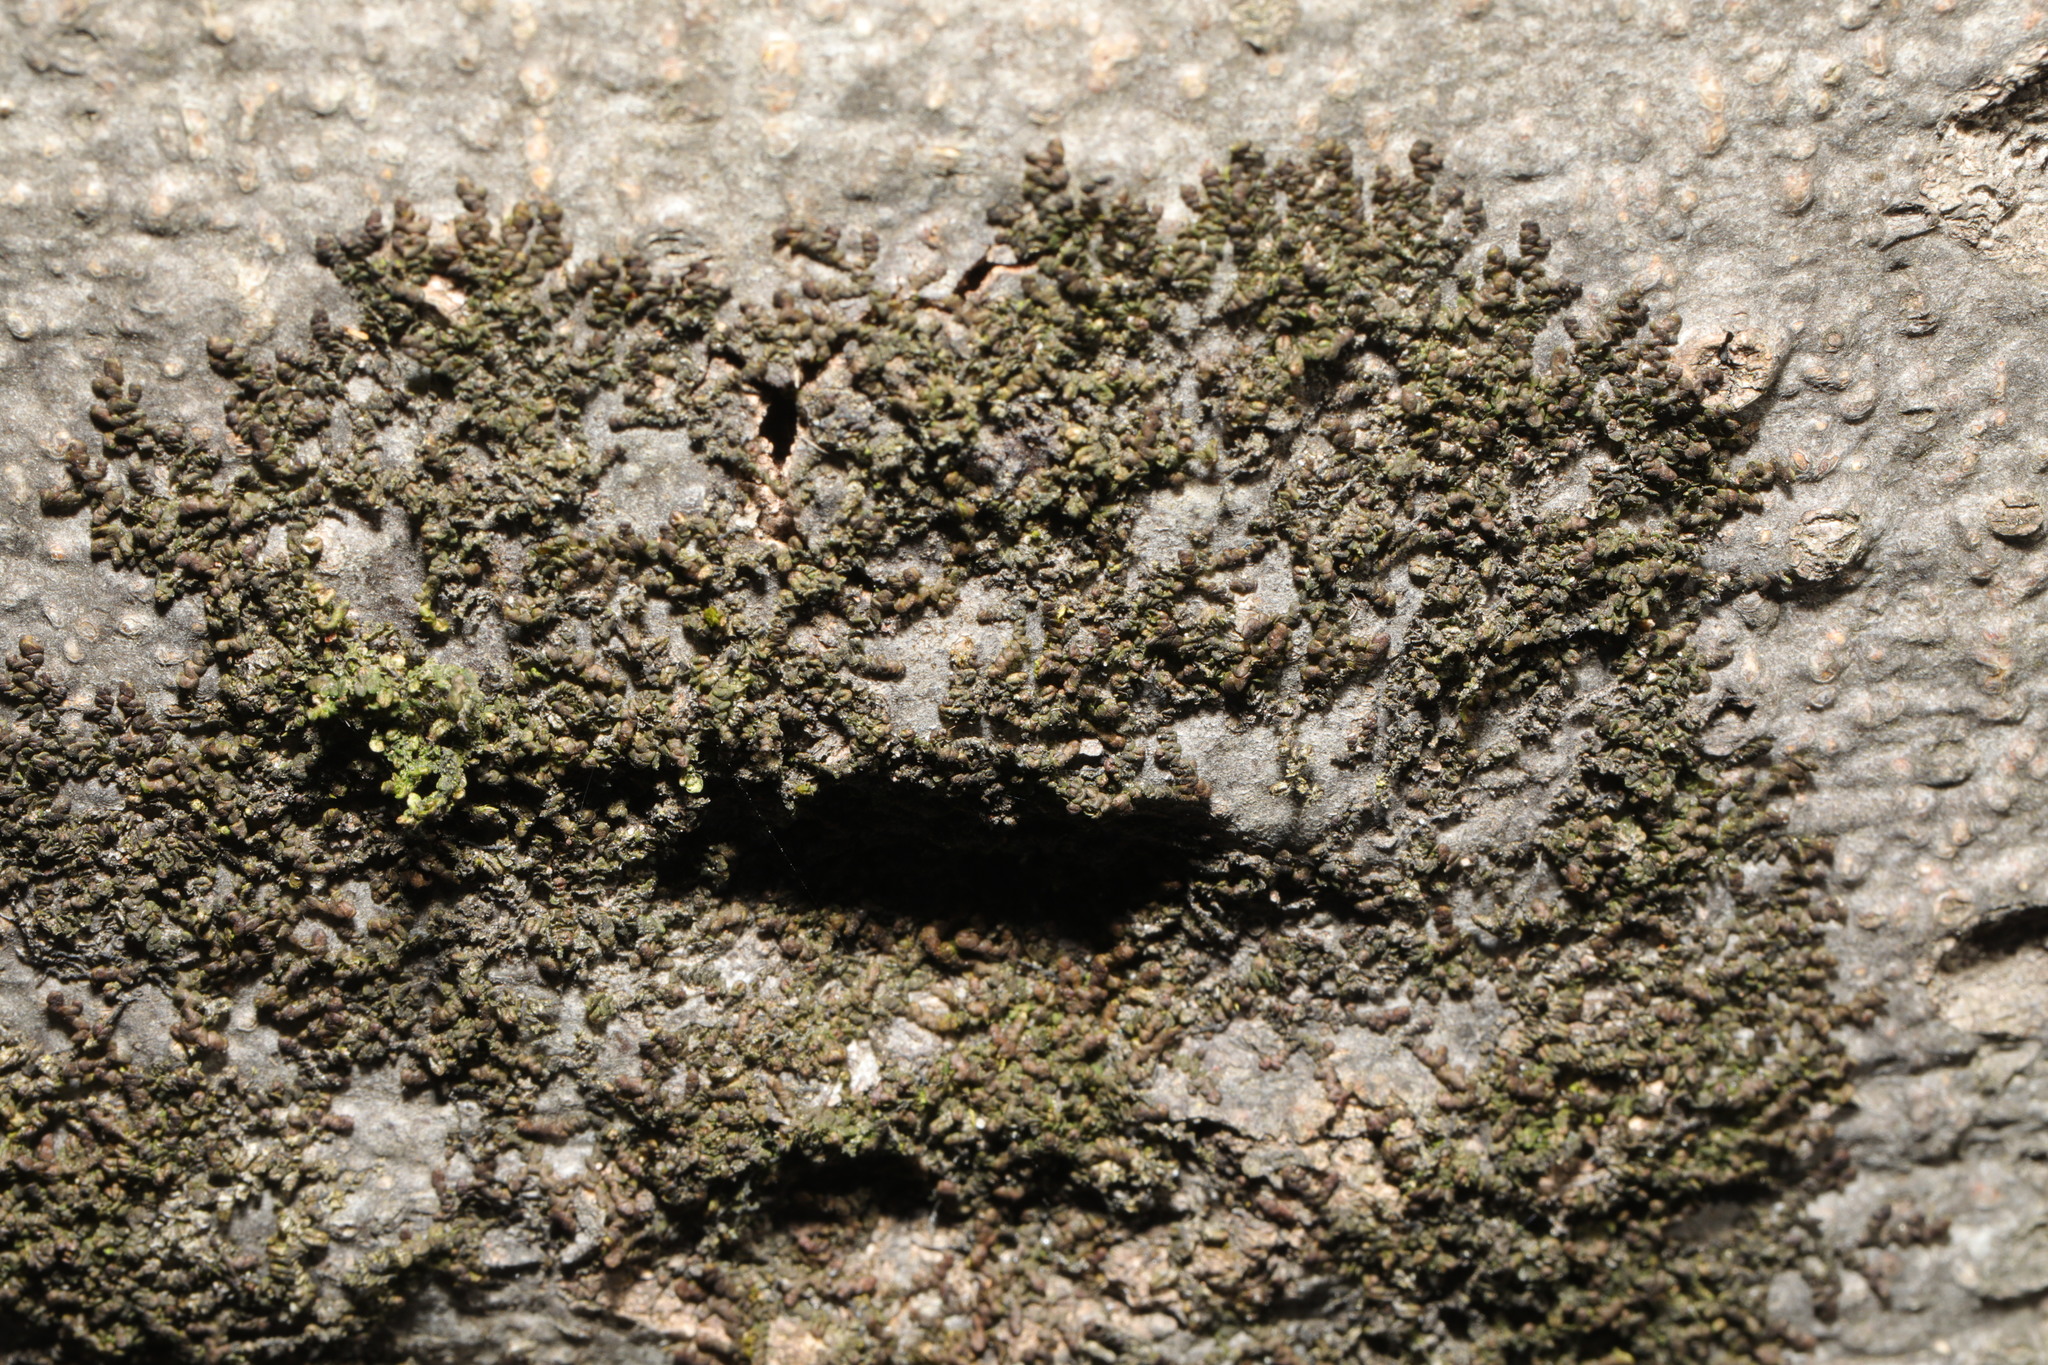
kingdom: Plantae
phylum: Marchantiophyta
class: Jungermanniopsida
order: Porellales
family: Frullaniaceae
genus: Frullania
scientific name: Frullania dilatata
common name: Dilated scalewort
